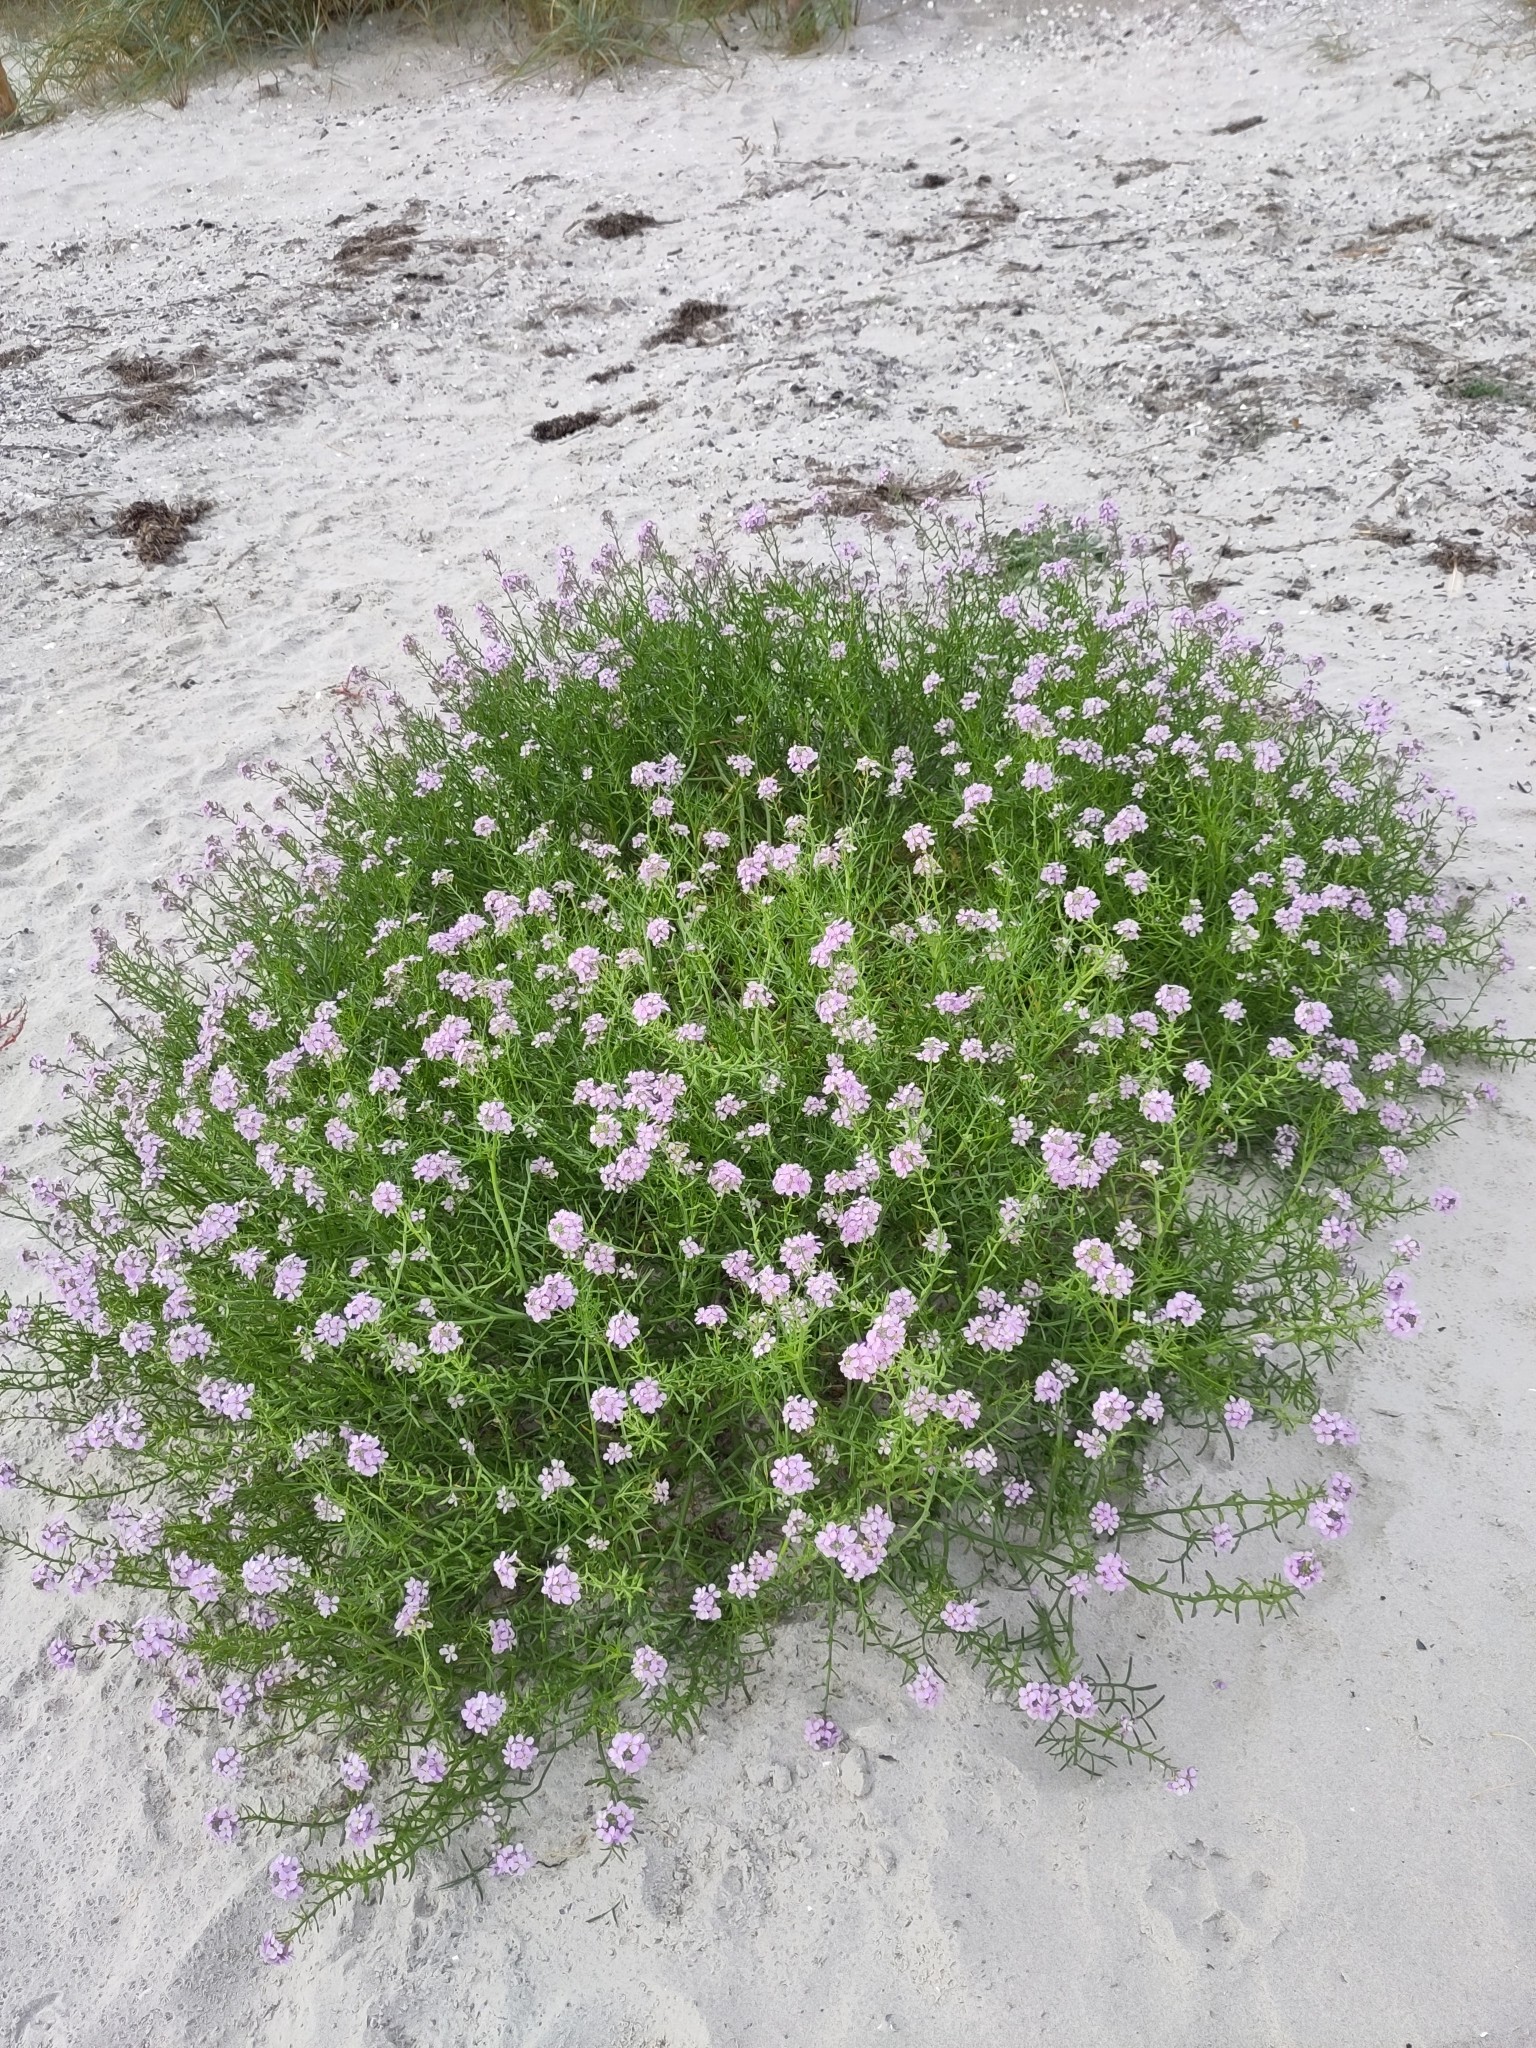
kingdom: Plantae
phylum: Tracheophyta
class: Magnoliopsida
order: Brassicales
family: Brassicaceae
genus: Cakile
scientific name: Cakile maritima
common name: Sea rocket
